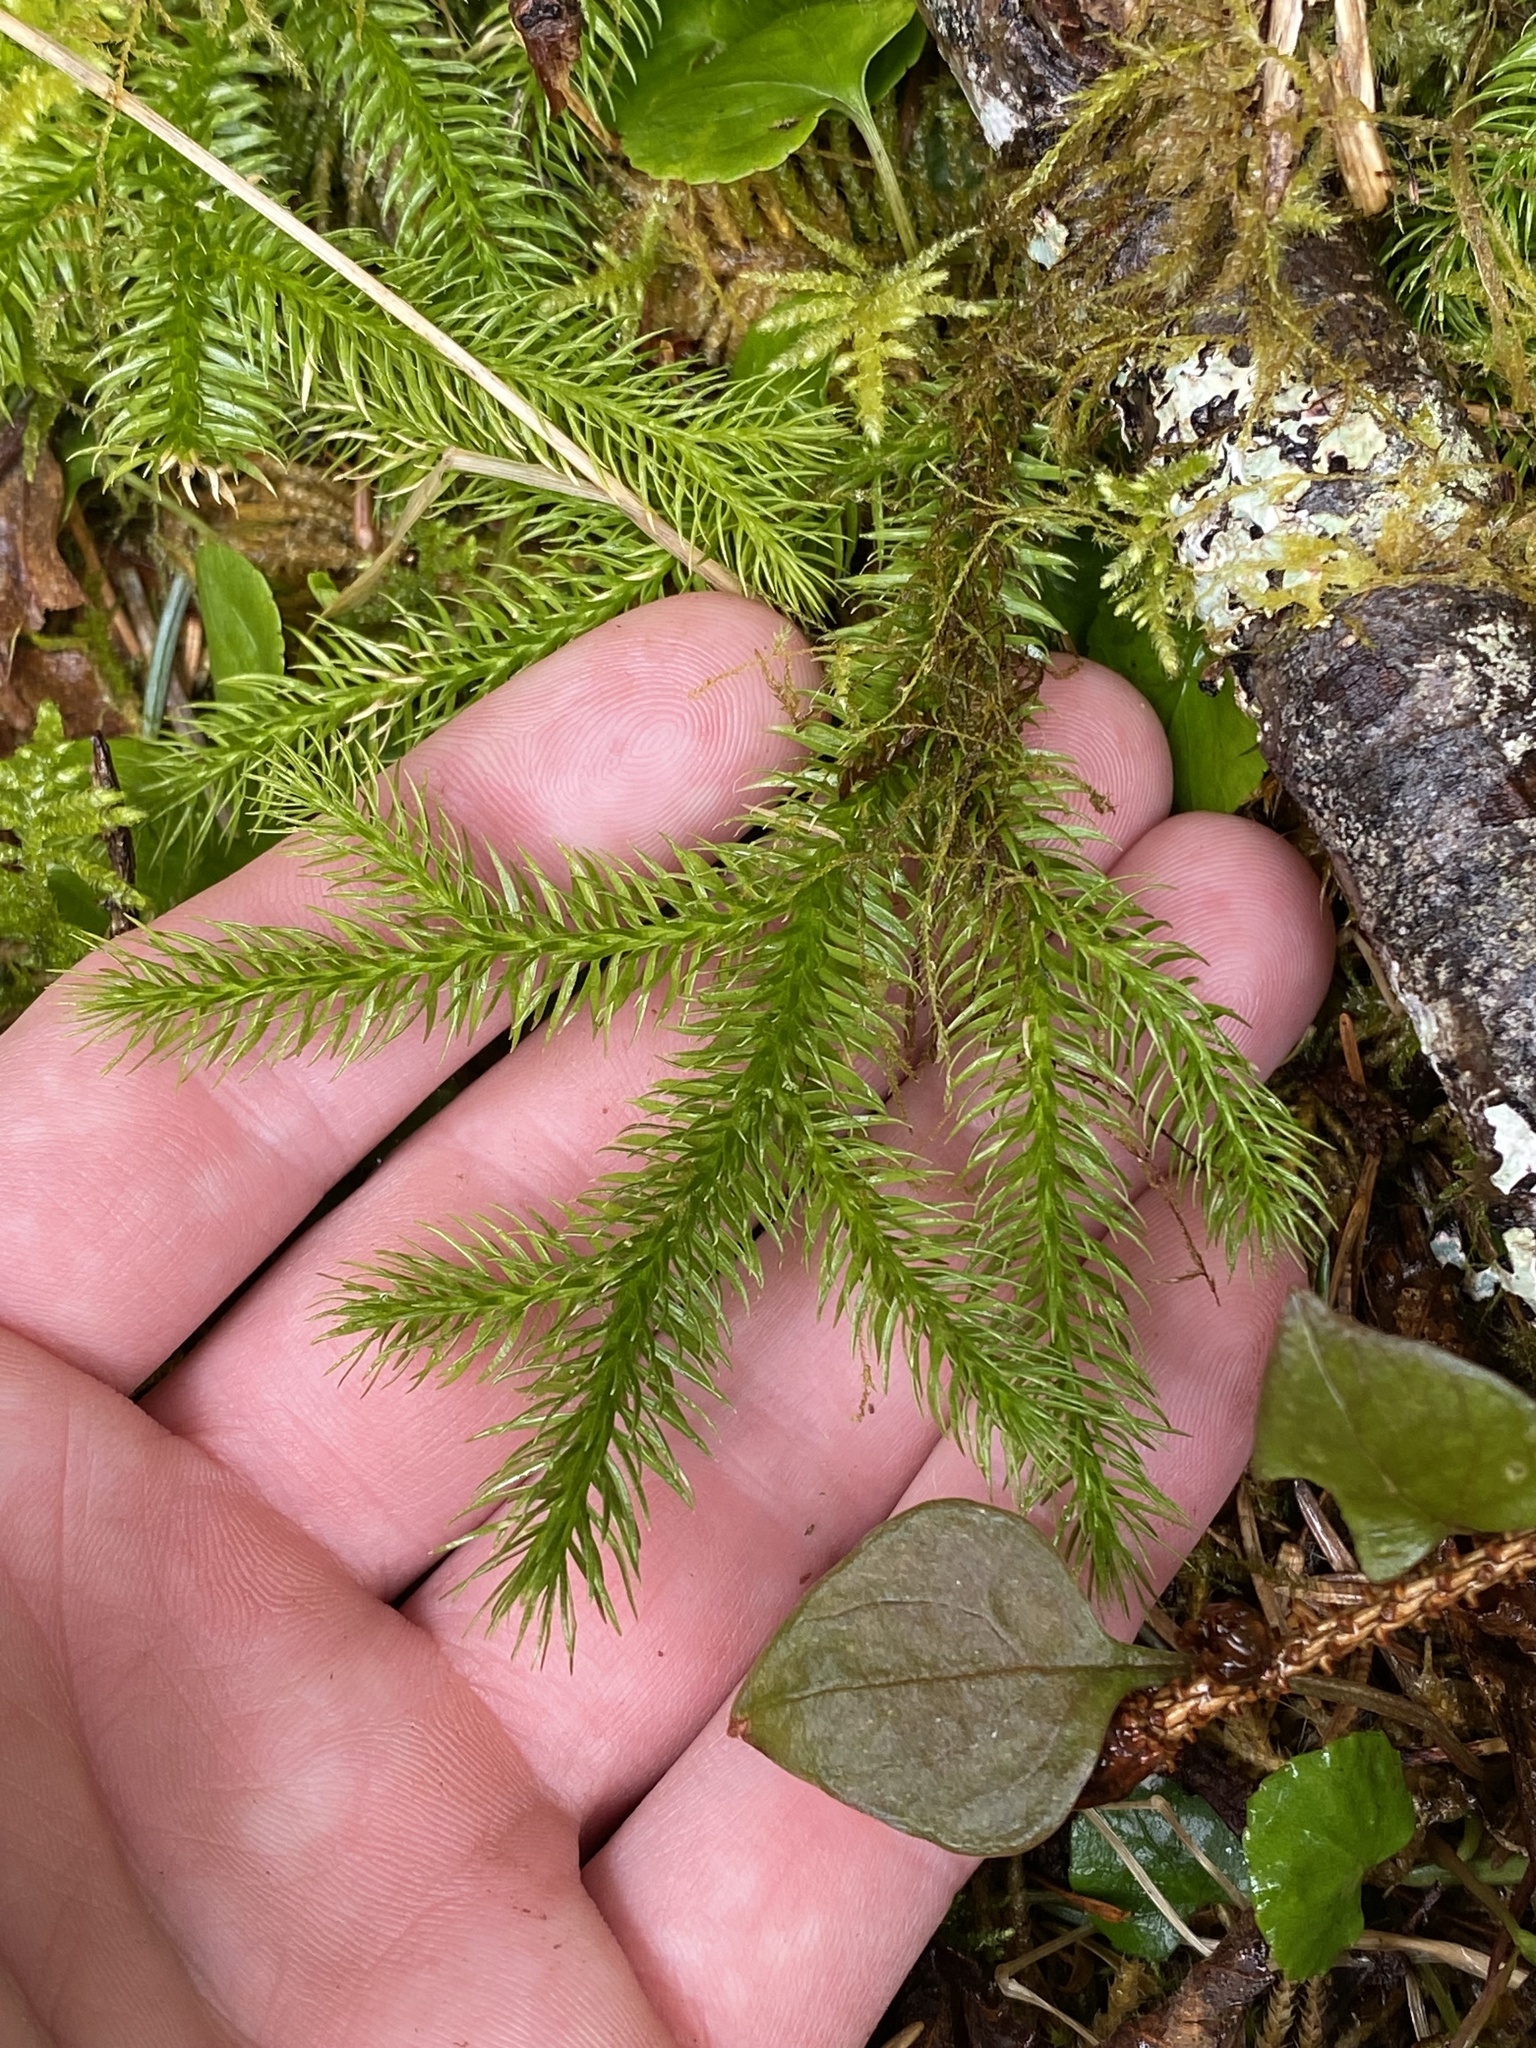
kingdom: Plantae
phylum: Tracheophyta
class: Lycopodiopsida
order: Lycopodiales
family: Lycopodiaceae
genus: Lycopodium
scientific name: Lycopodium clavatum
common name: Stag's-horn clubmoss
